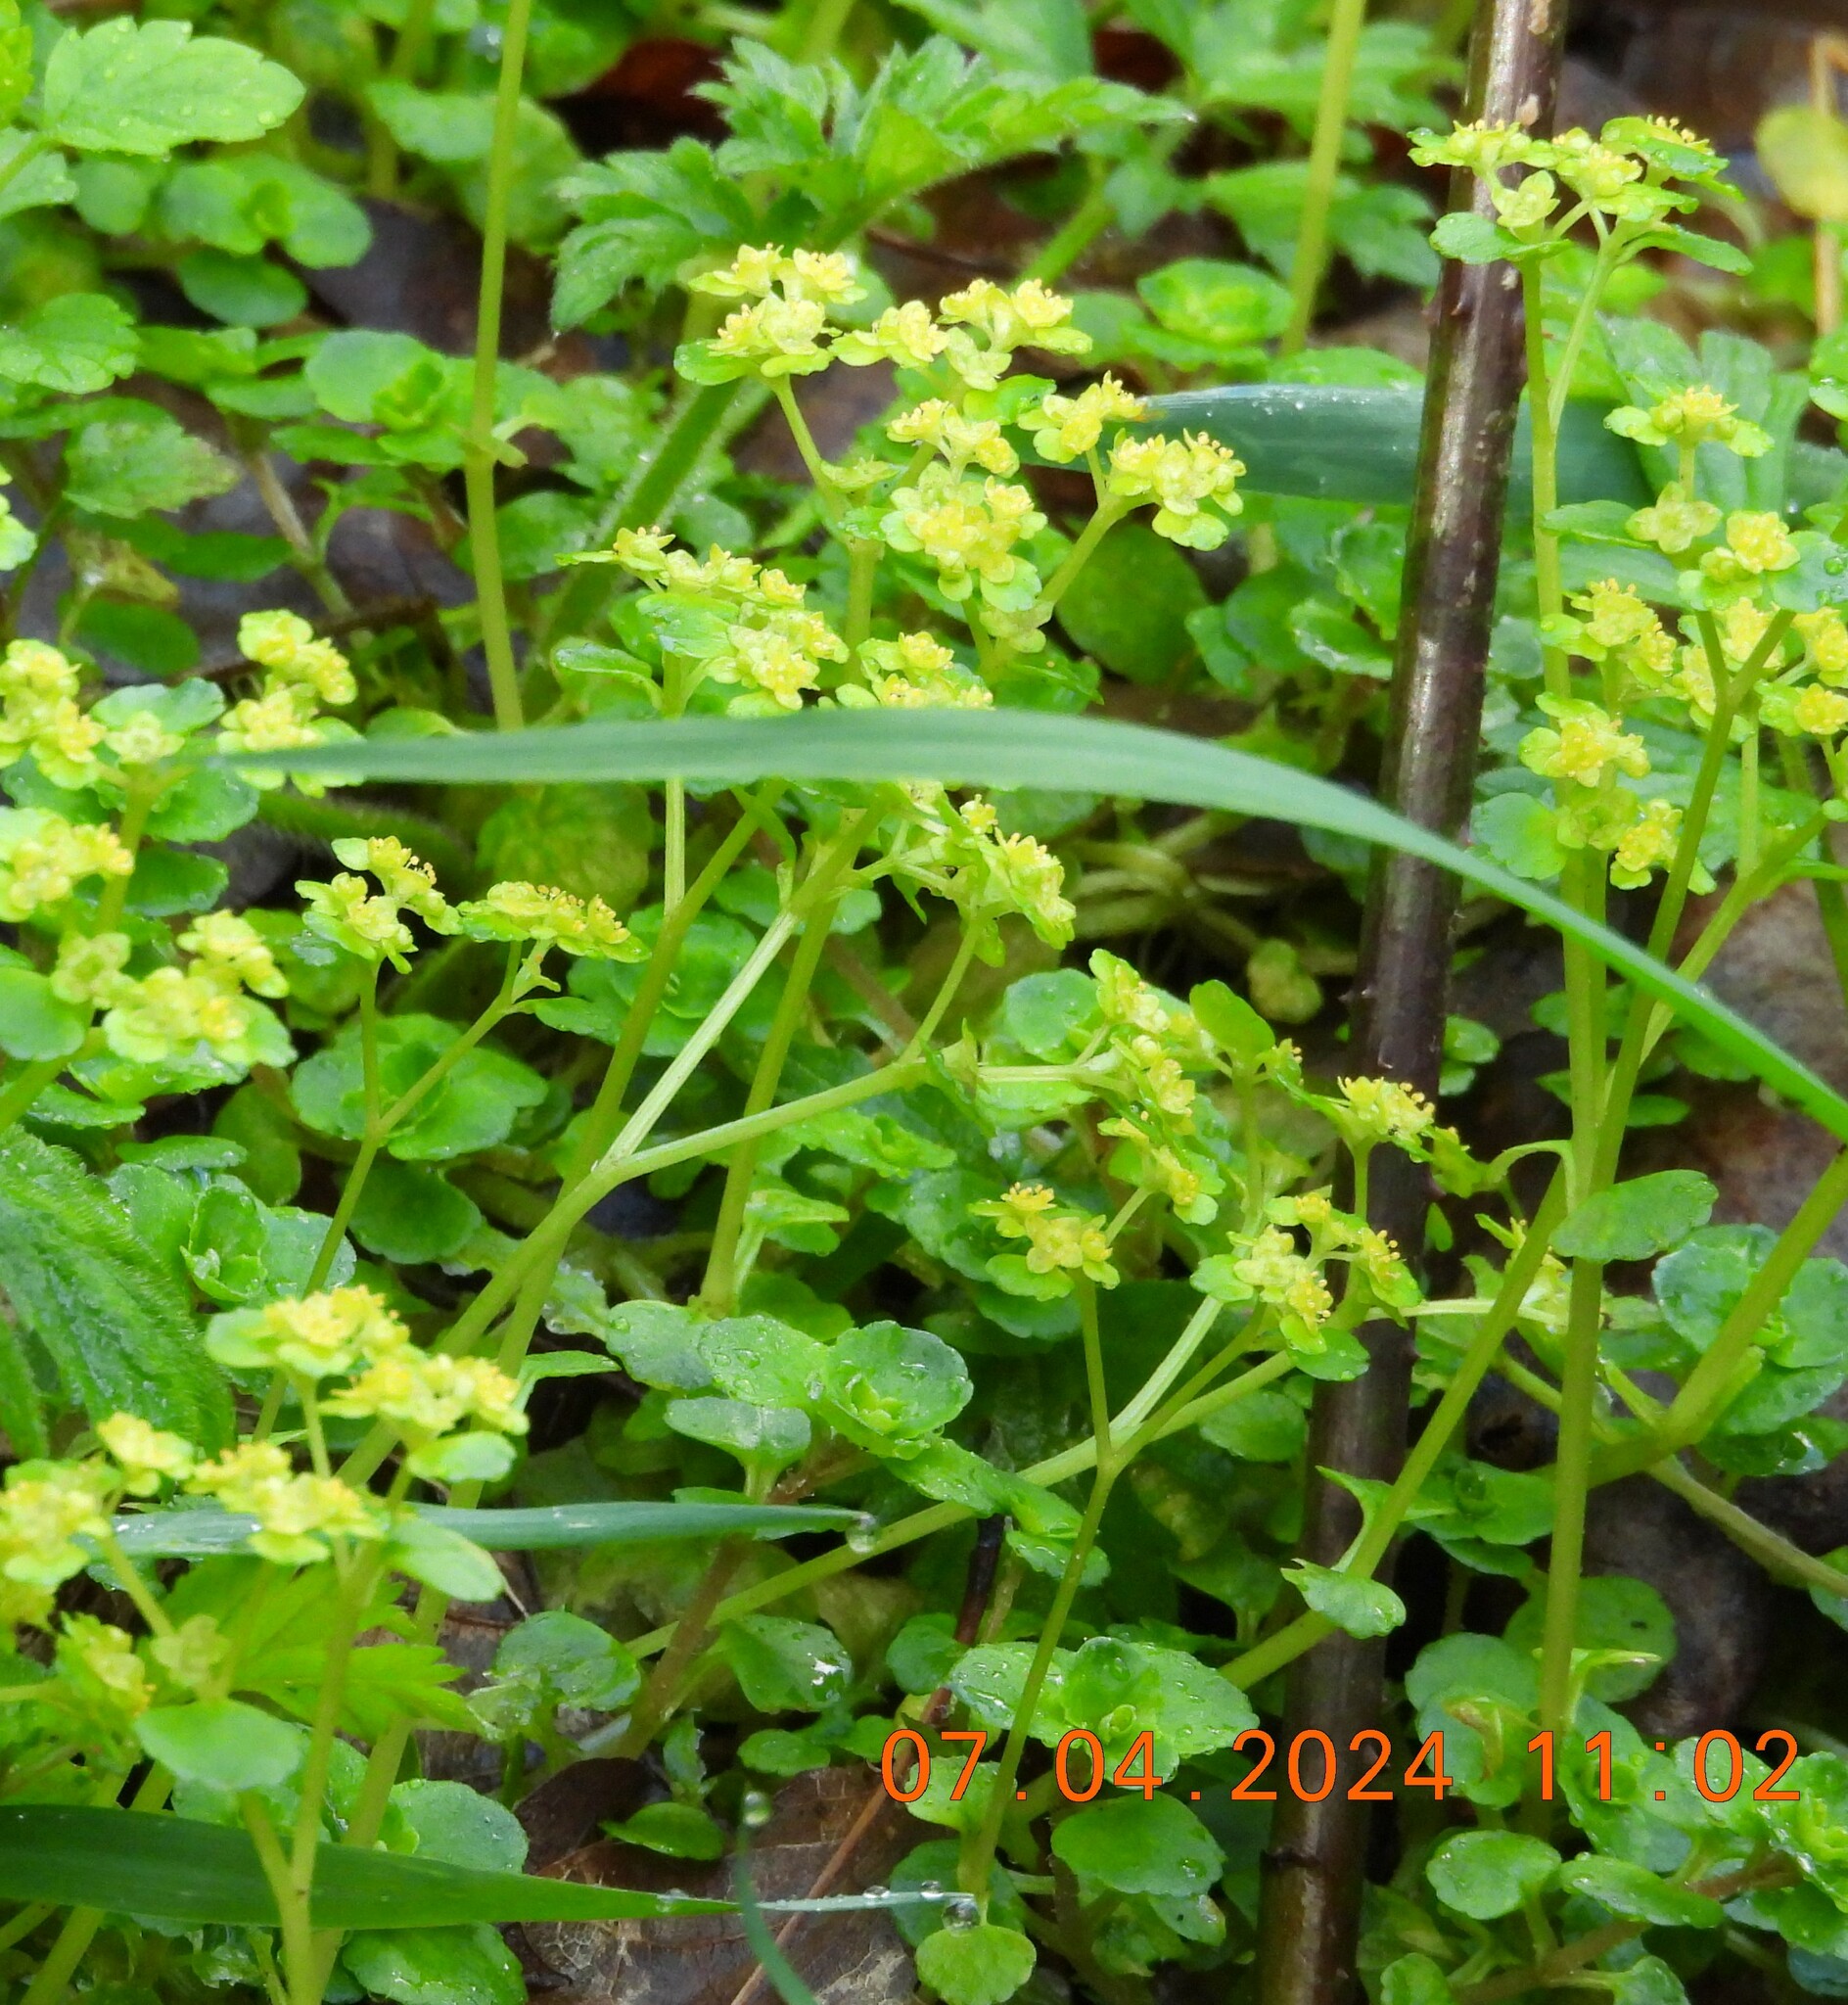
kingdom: Plantae
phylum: Tracheophyta
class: Magnoliopsida
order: Saxifragales
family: Saxifragaceae
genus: Chrysosplenium
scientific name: Chrysosplenium oppositifolium
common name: Opposite-leaved golden-saxifrage
